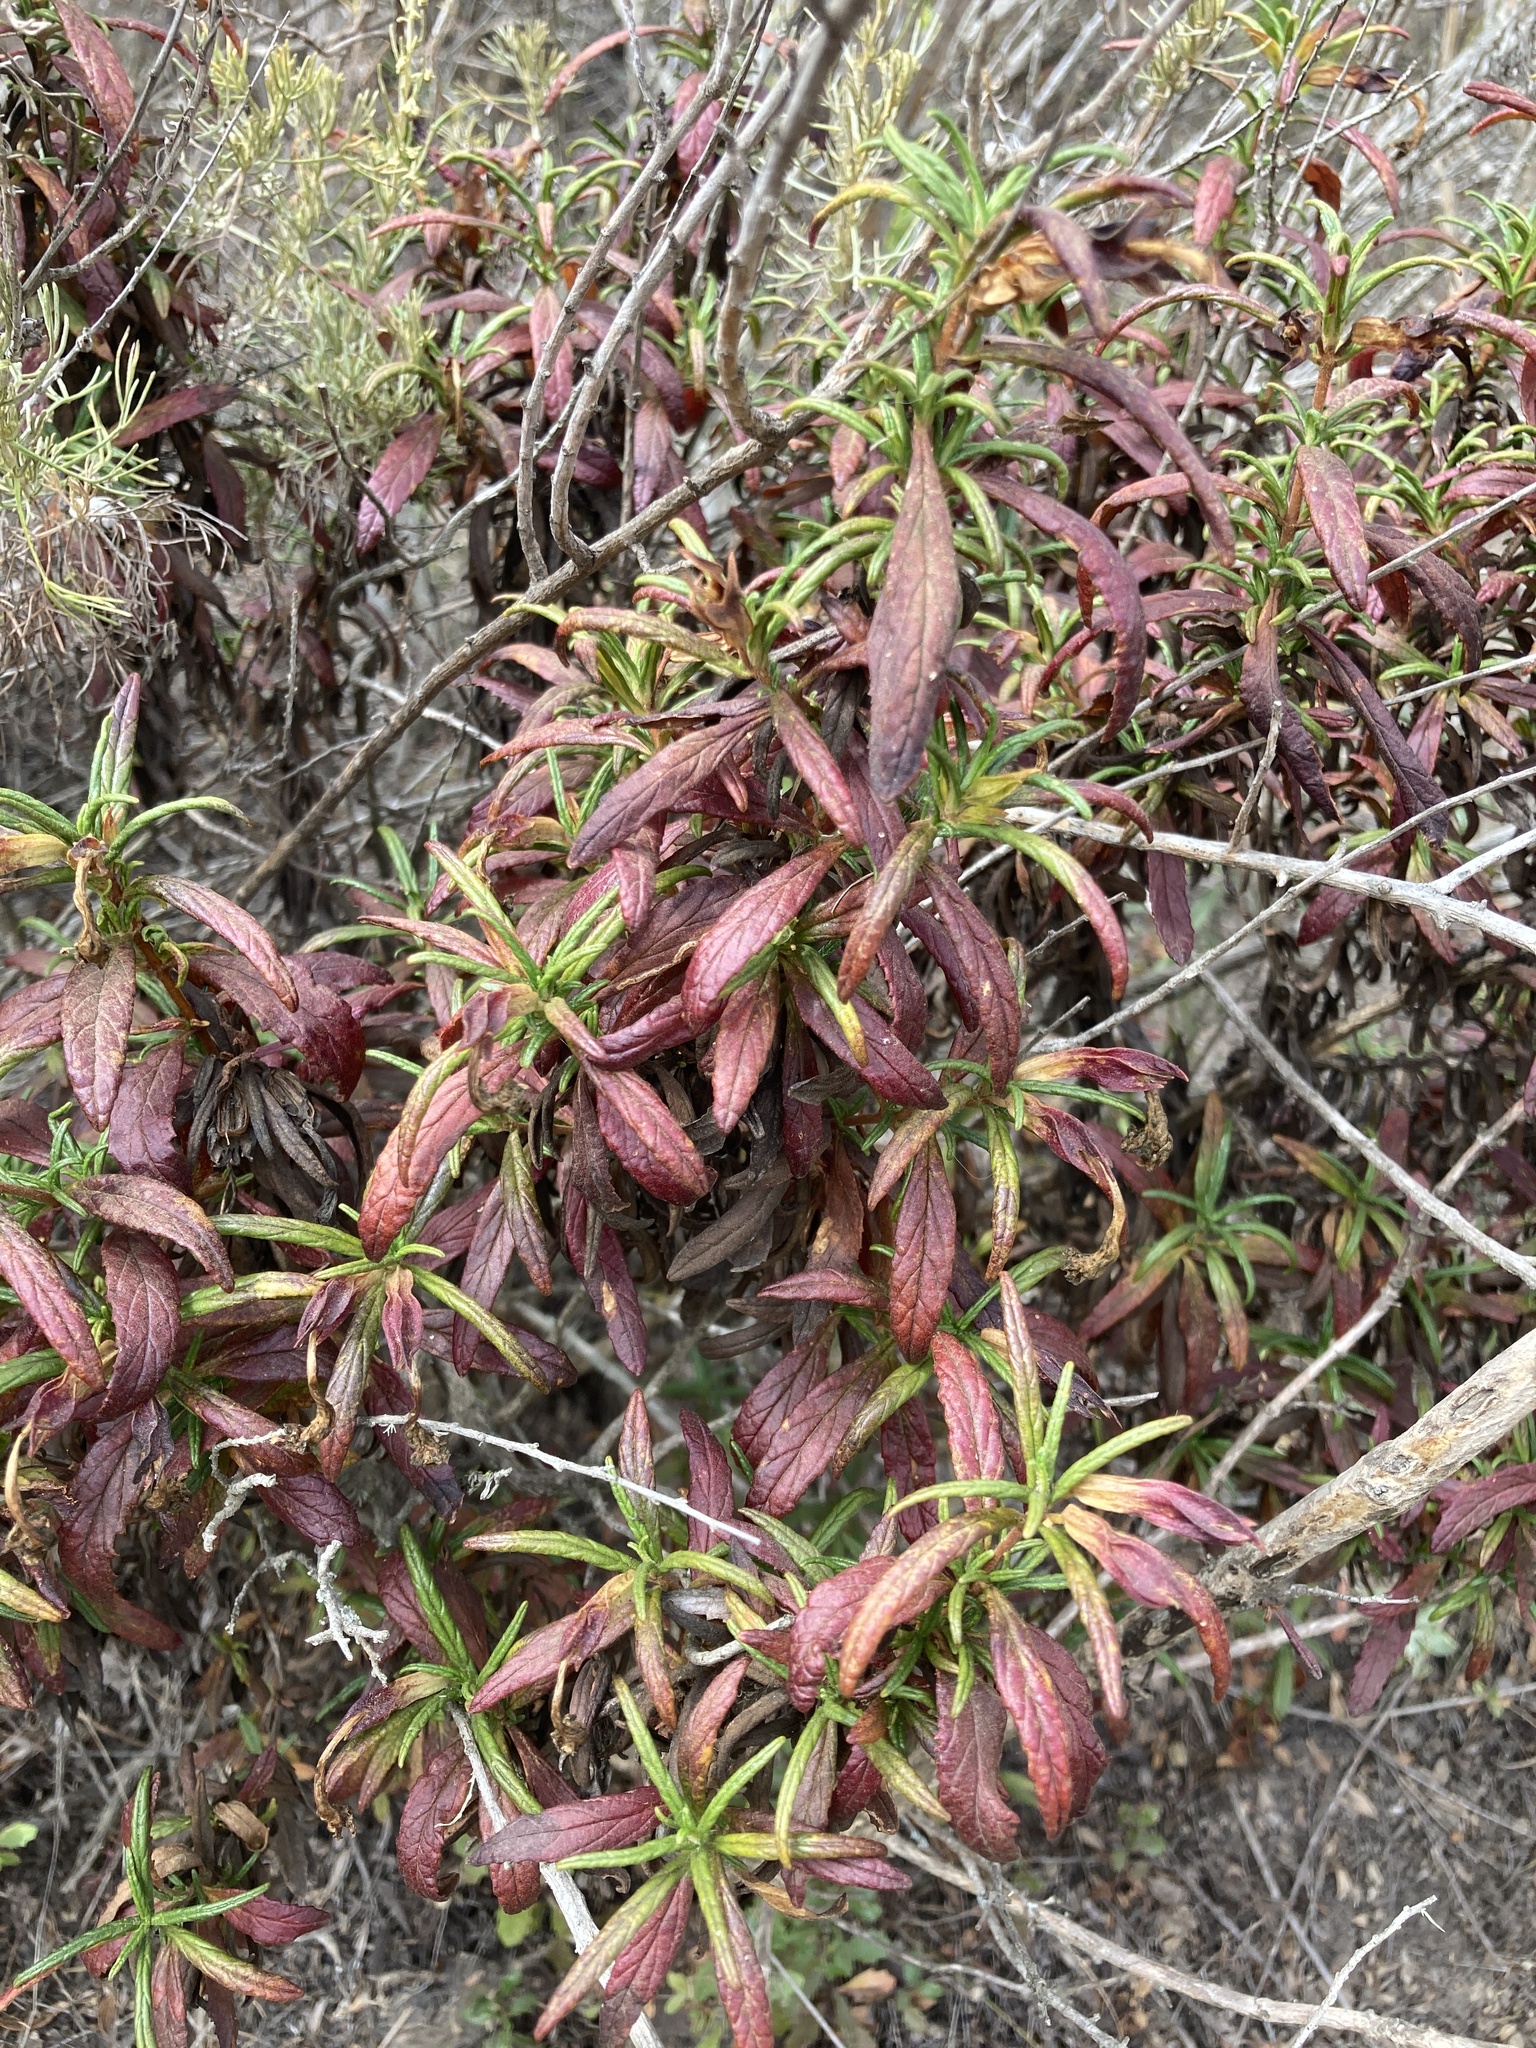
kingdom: Plantae
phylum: Tracheophyta
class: Magnoliopsida
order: Lamiales
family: Phrymaceae
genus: Diplacus
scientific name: Diplacus aurantiacus
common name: Bush monkey-flower
